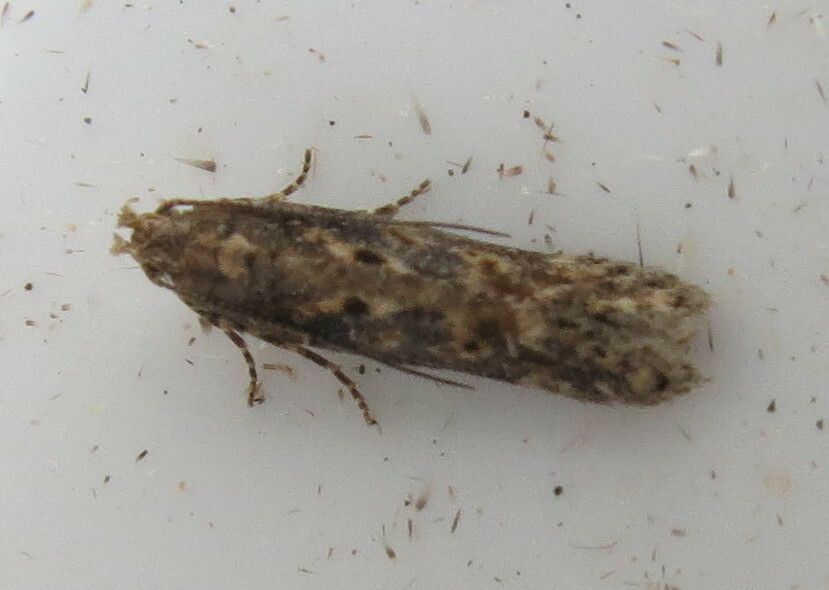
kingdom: Animalia
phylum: Arthropoda
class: Insecta
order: Lepidoptera
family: Gelechiidae
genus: Scrobipalpa
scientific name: Scrobipalpa ocellatella
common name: Beet moth
